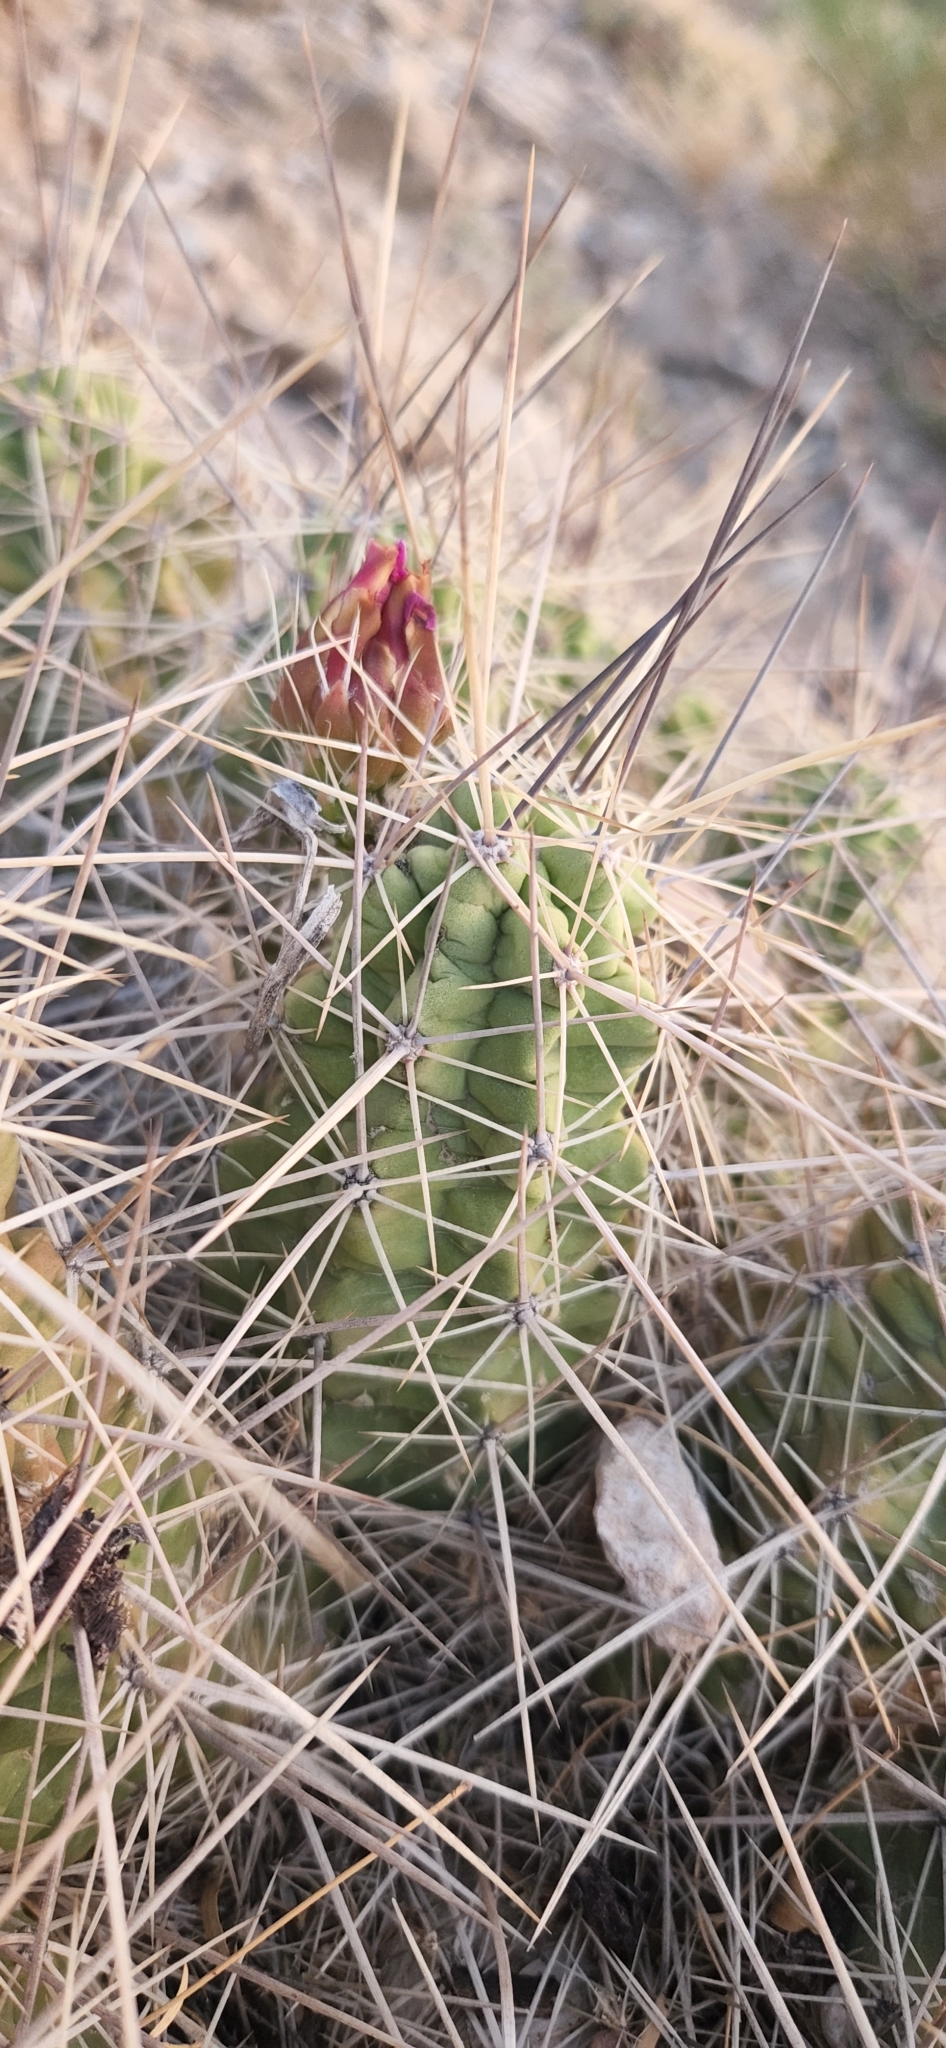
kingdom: Plantae
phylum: Tracheophyta
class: Magnoliopsida
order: Caryophyllales
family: Cactaceae
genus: Echinocereus
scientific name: Echinocereus enneacanthus
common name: Pitaya
